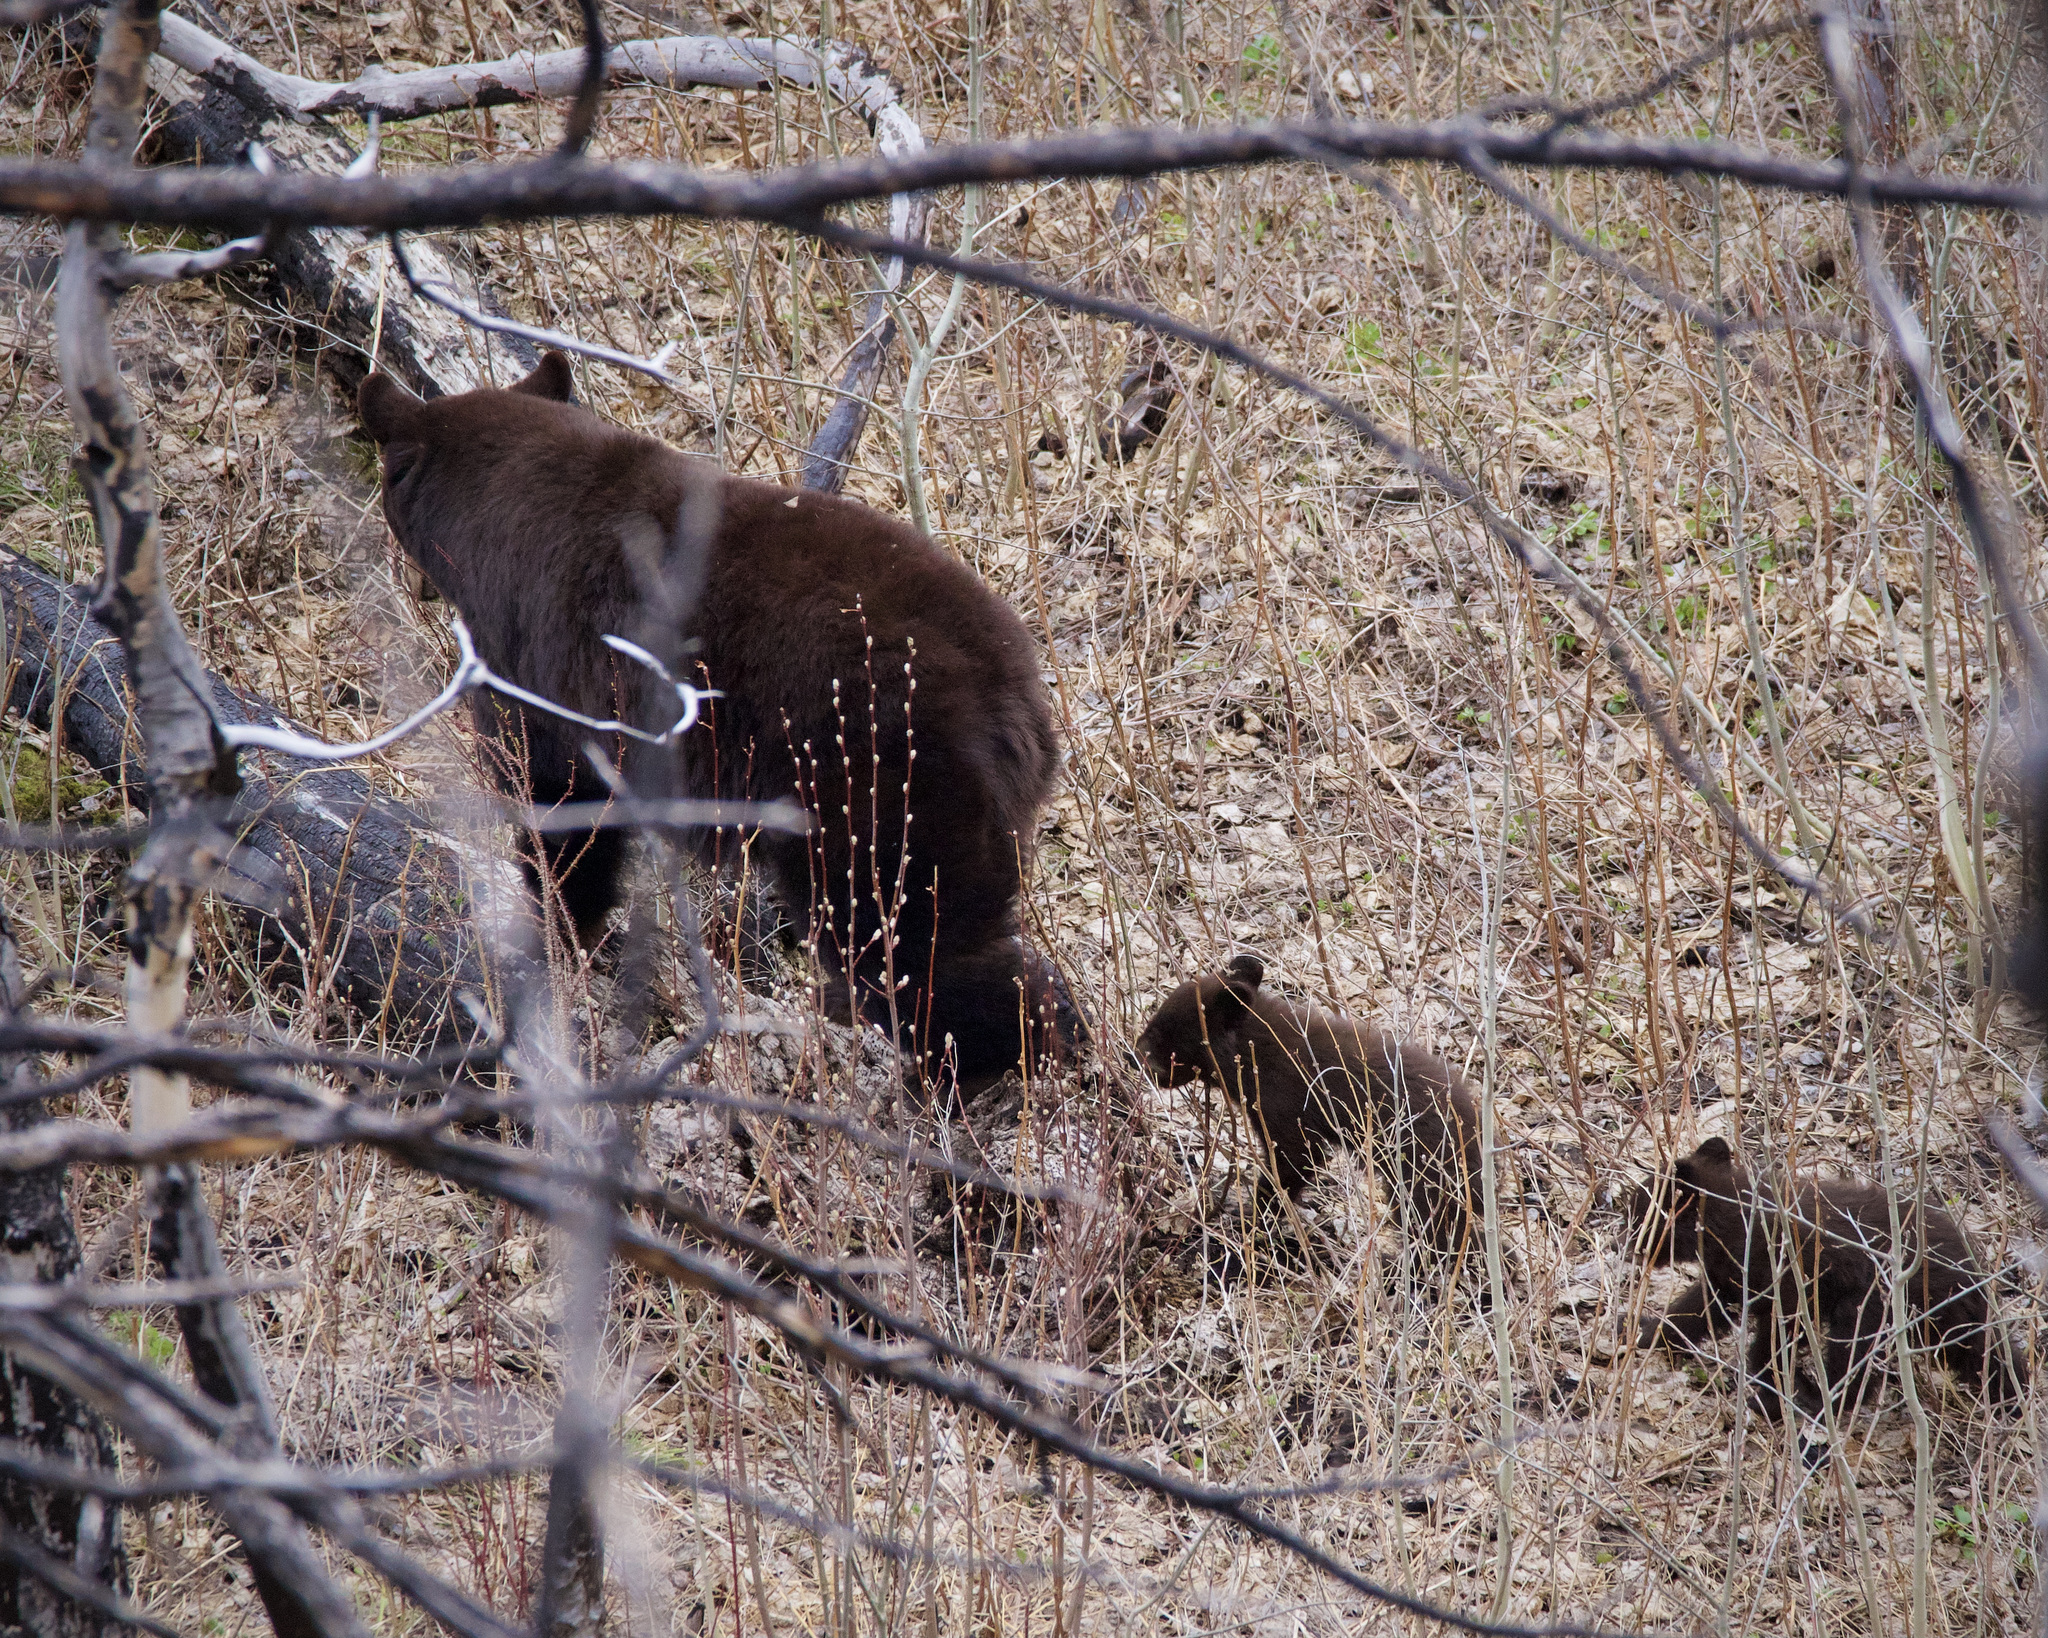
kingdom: Animalia
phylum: Chordata
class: Mammalia
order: Carnivora
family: Ursidae
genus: Ursus
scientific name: Ursus americanus
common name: American black bear
